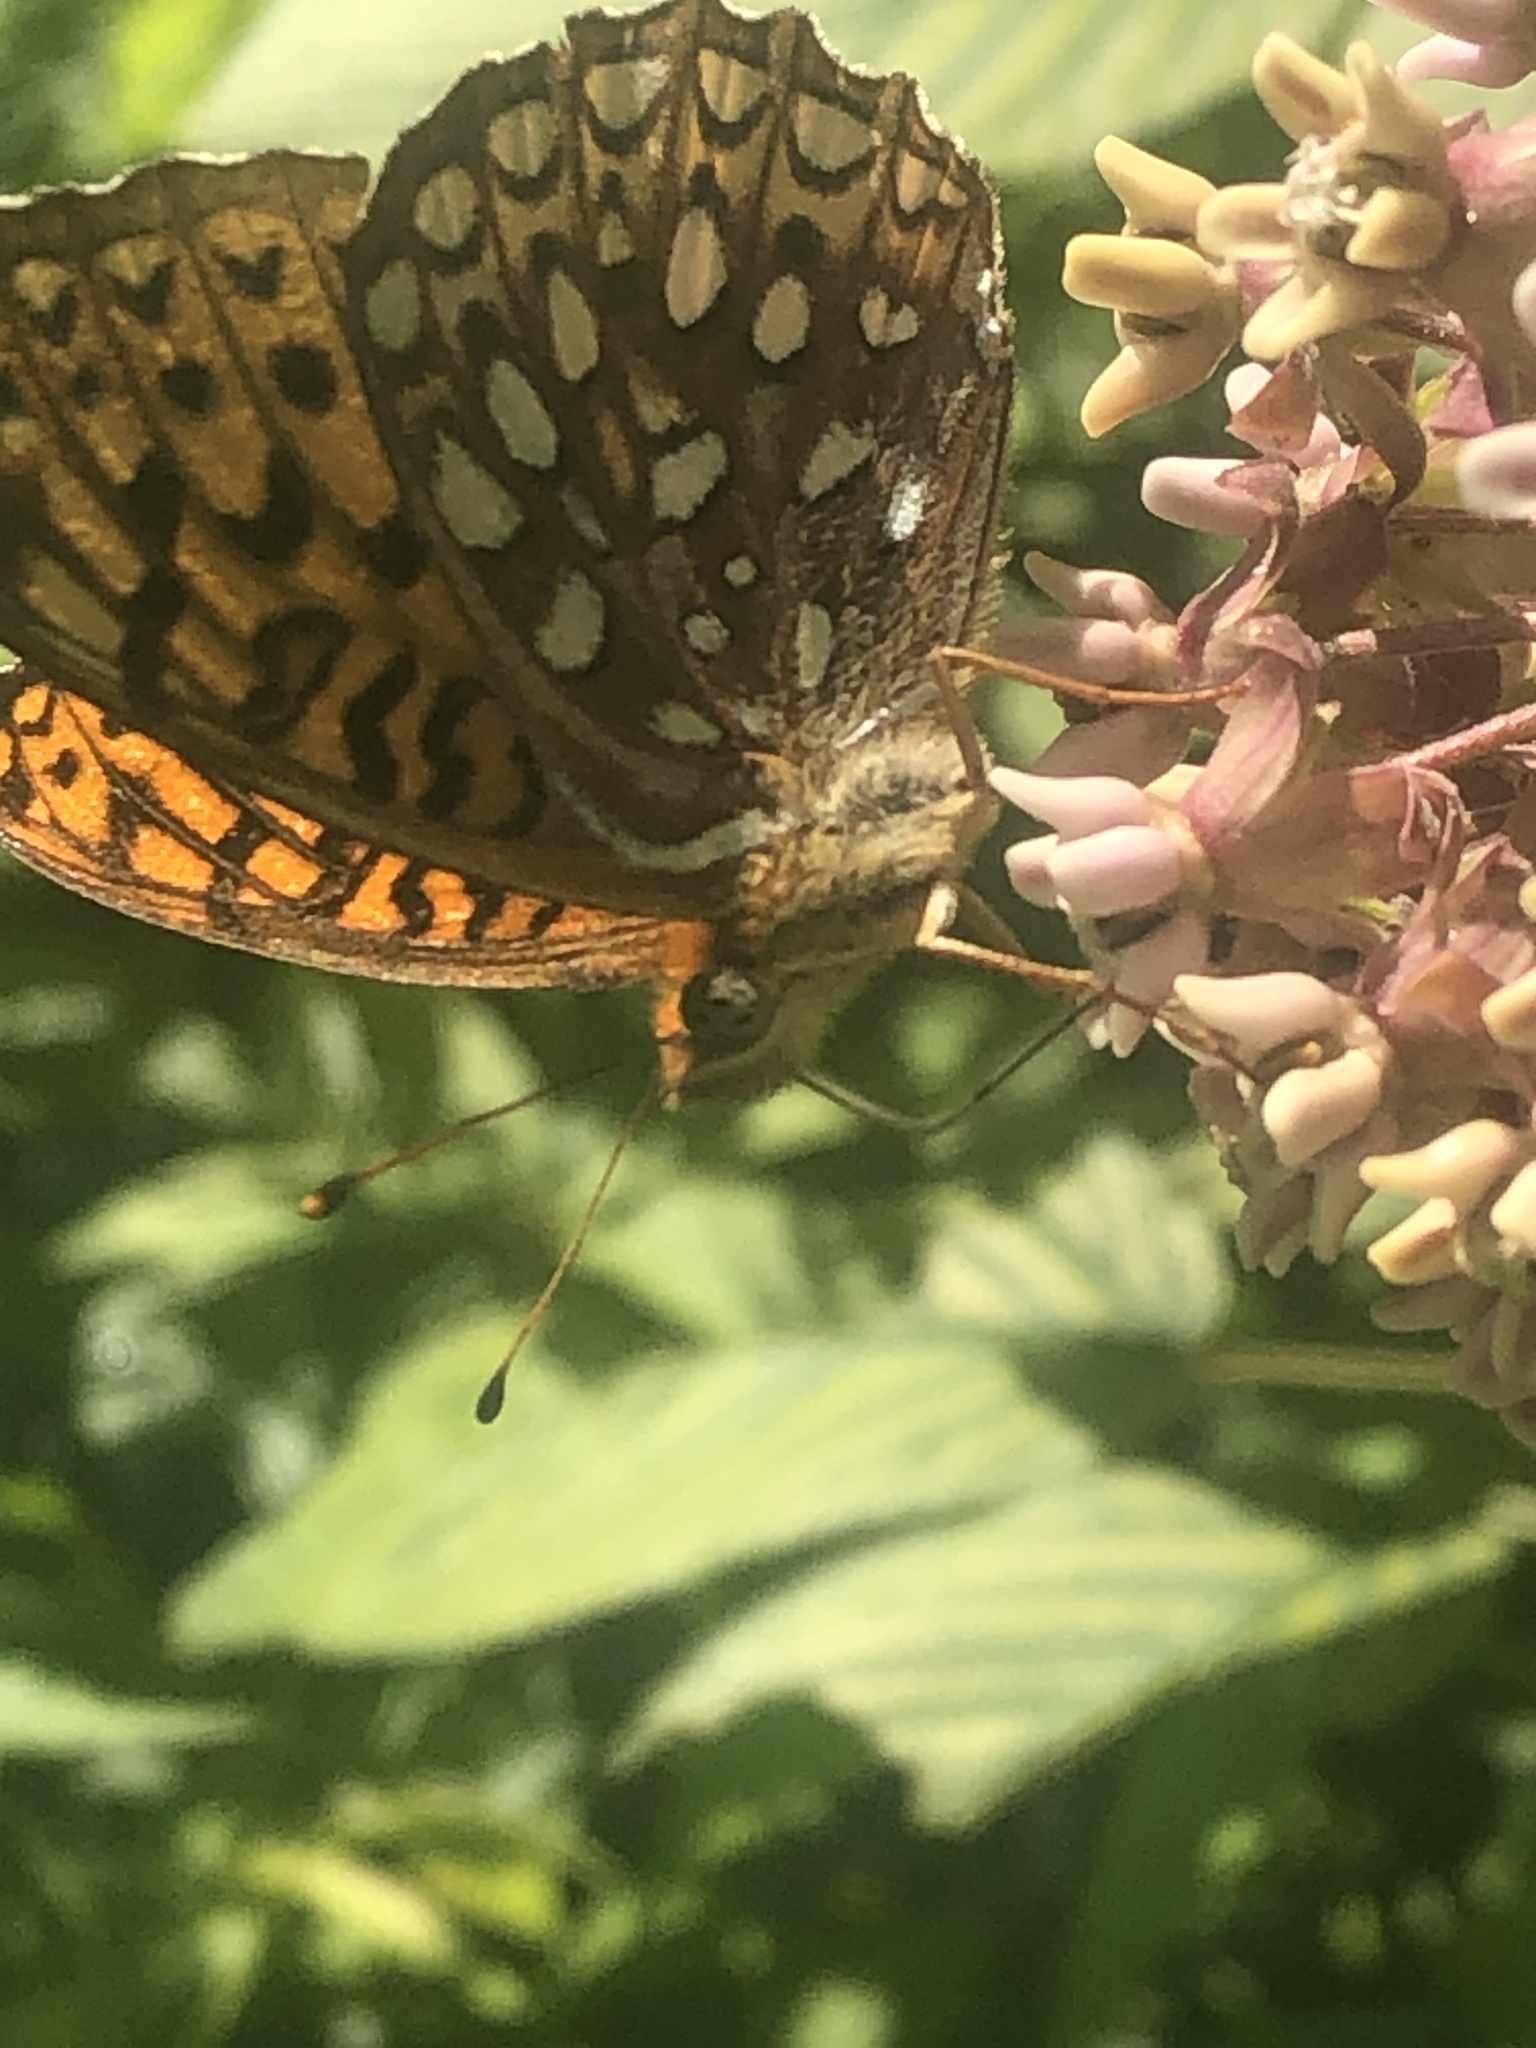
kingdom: Animalia
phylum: Arthropoda
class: Insecta
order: Lepidoptera
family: Nymphalidae
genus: Speyeria
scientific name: Speyeria atlantis
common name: Atlantis fritillary
